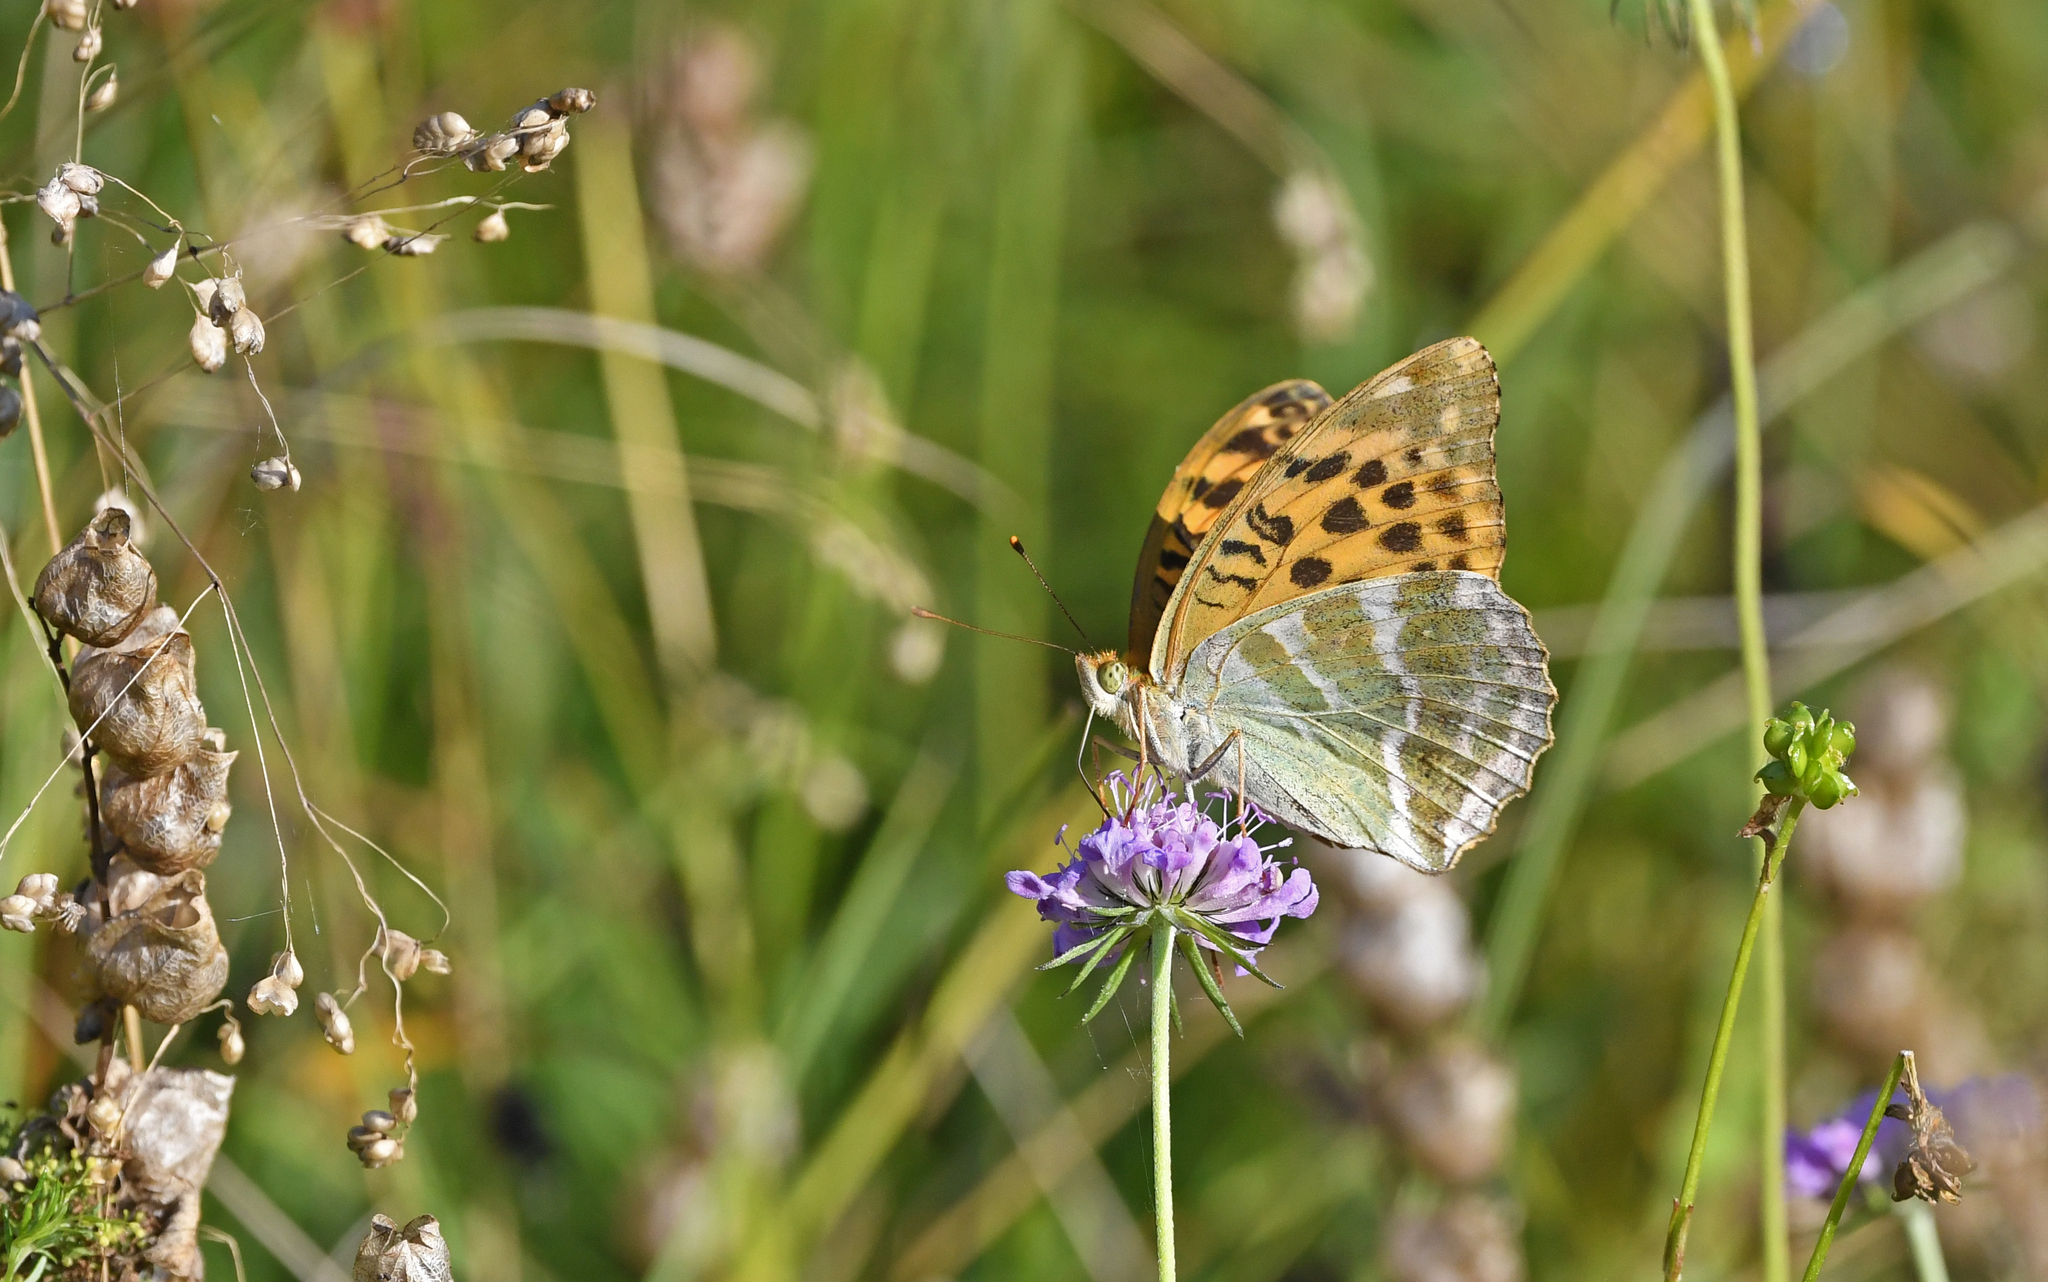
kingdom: Animalia
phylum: Arthropoda
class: Insecta
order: Lepidoptera
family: Nymphalidae
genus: Argynnis
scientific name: Argynnis paphia
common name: Silver-washed fritillary
